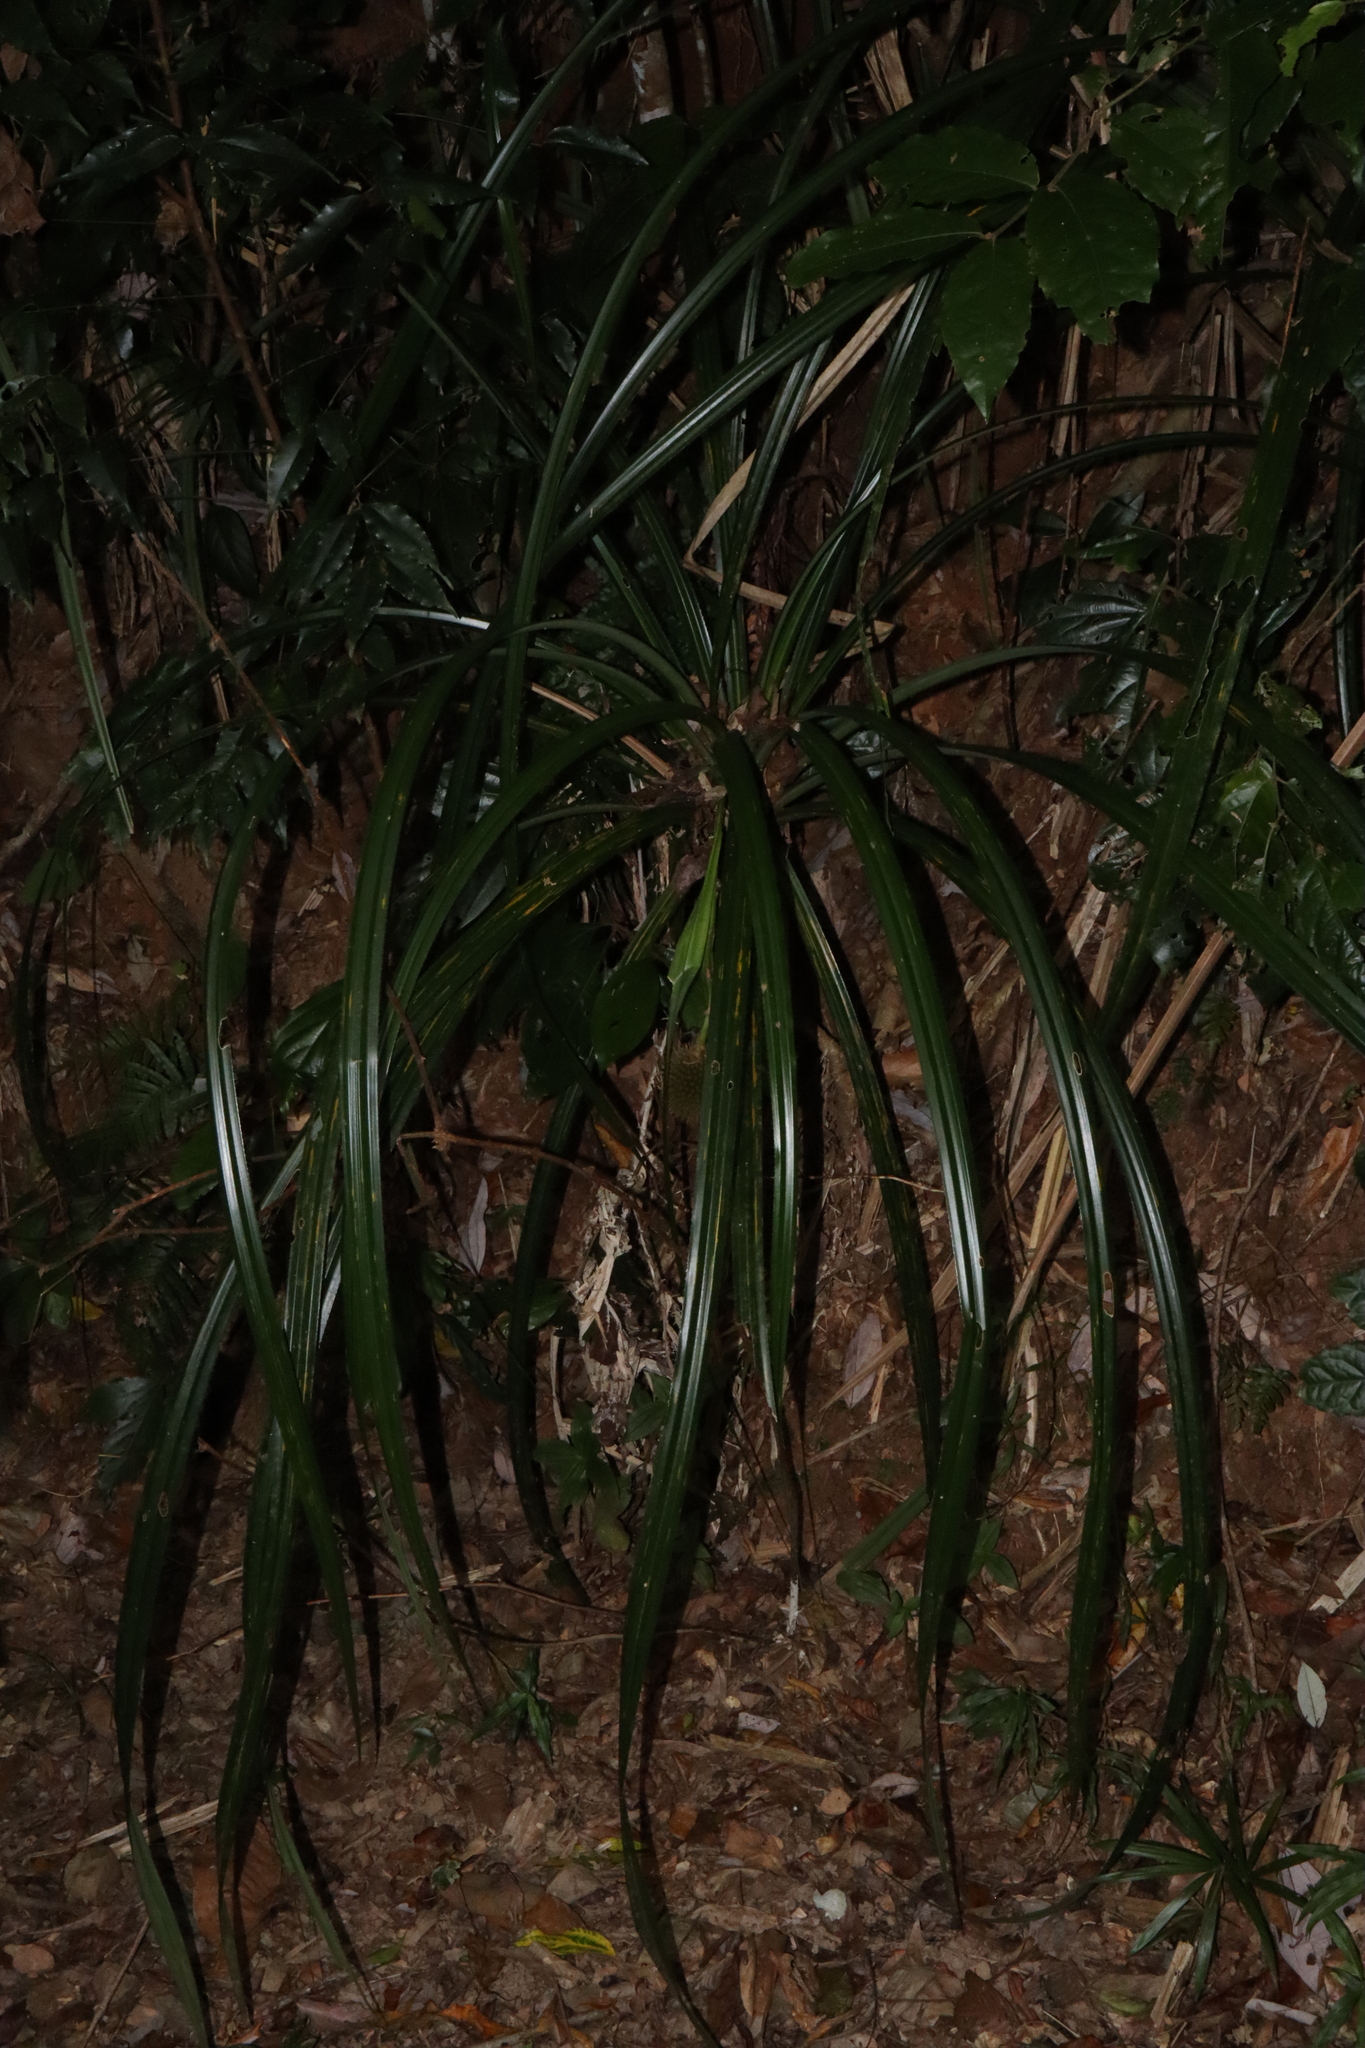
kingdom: Plantae
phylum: Tracheophyta
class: Liliopsida
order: Pandanales
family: Pandanaceae
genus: Benstonea
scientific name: Benstonea monticola
